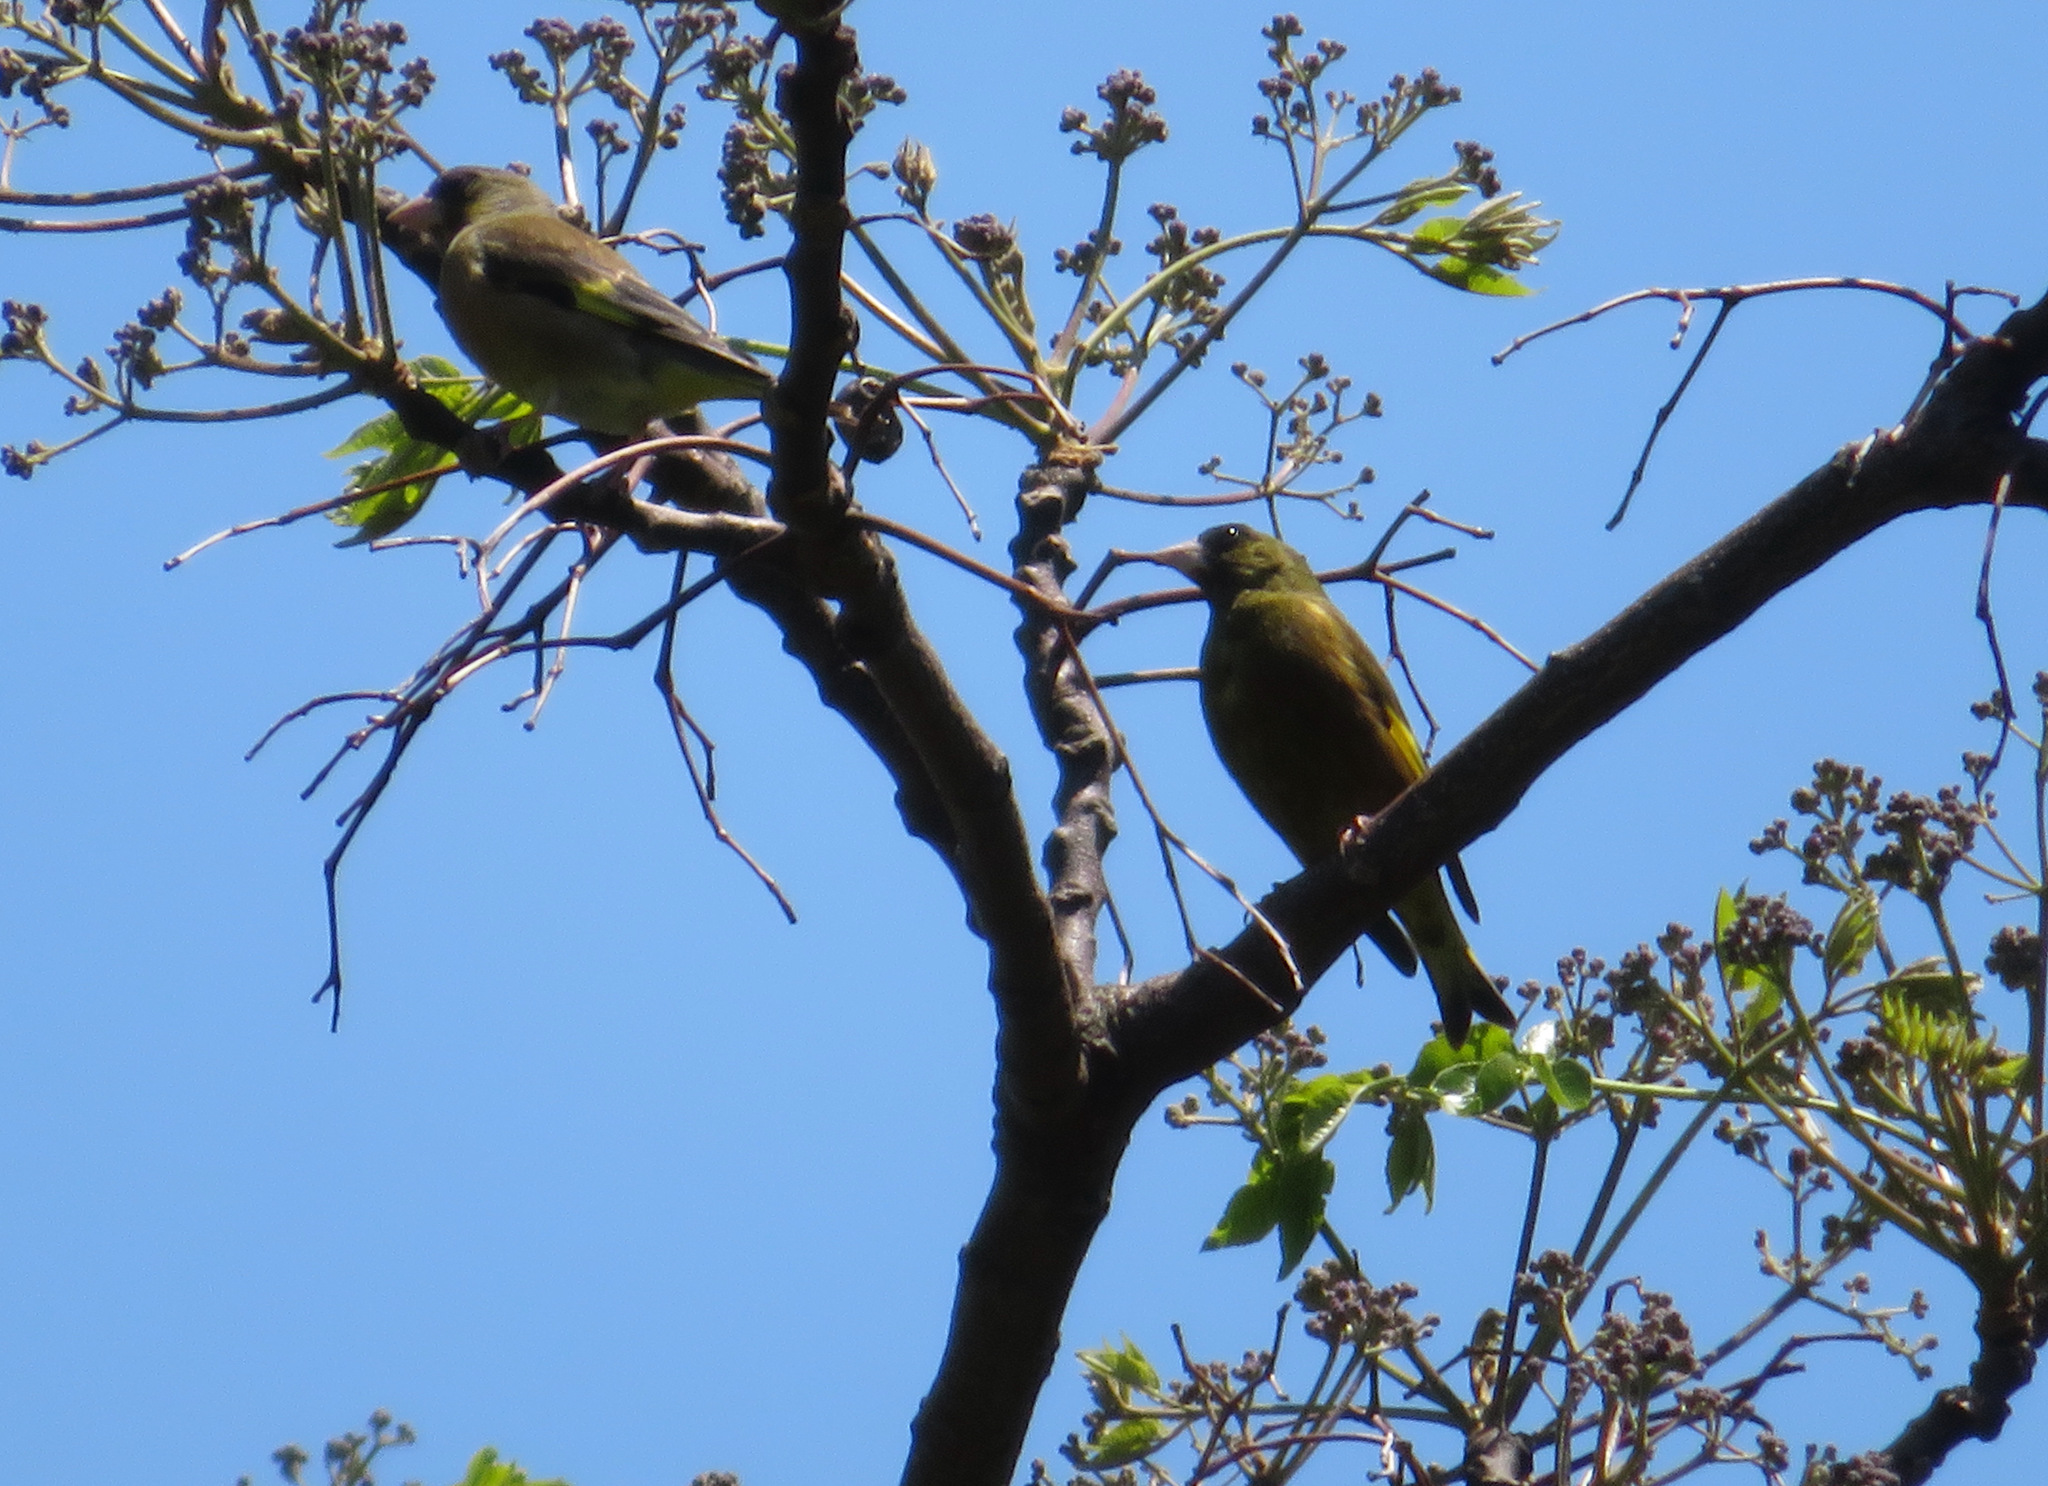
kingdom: Plantae
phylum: Tracheophyta
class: Liliopsida
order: Poales
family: Poaceae
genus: Chloris
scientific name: Chloris sinica
